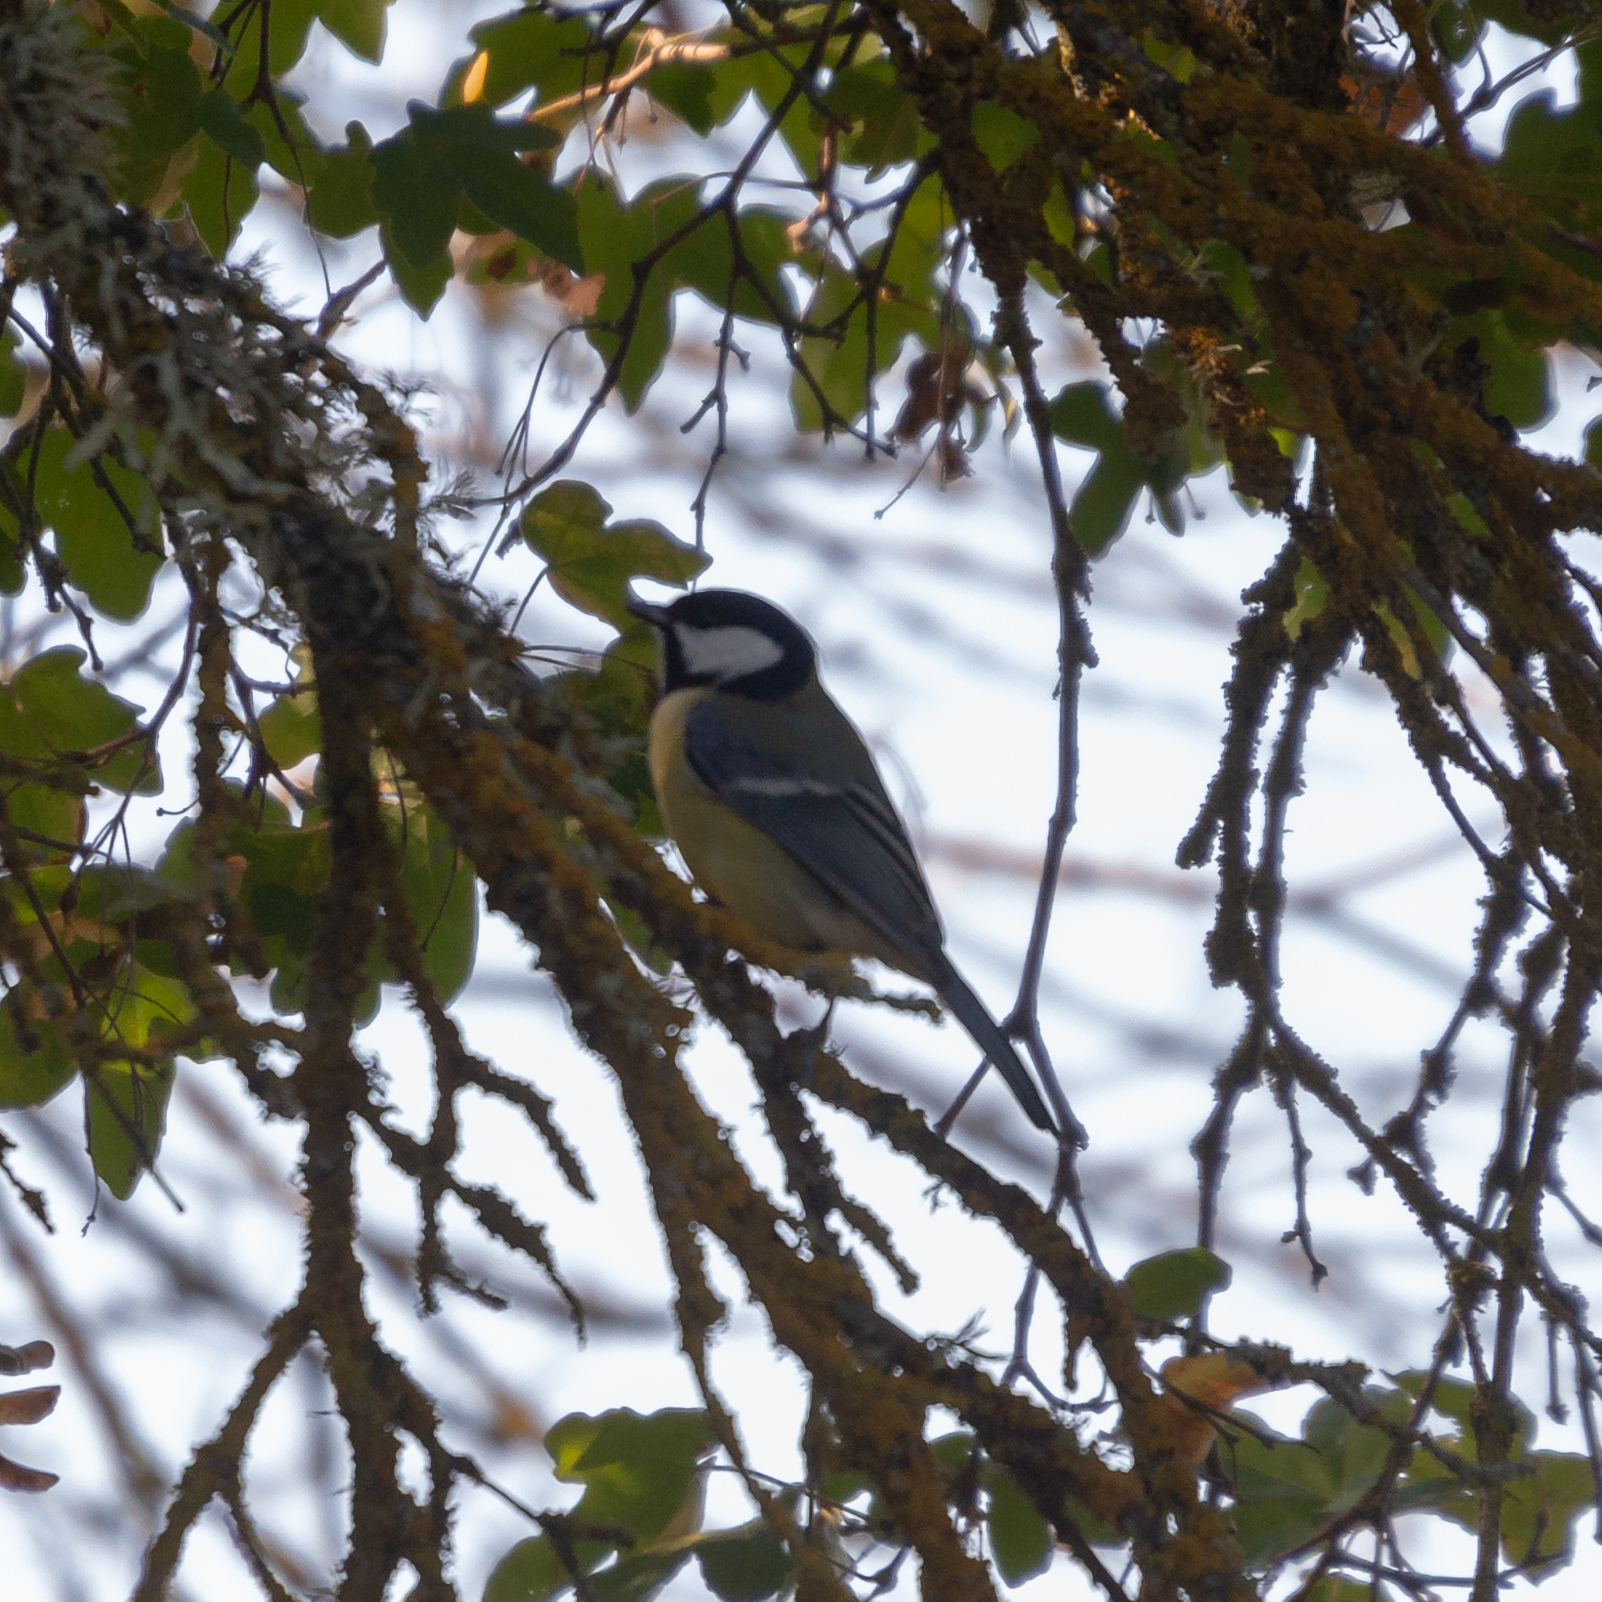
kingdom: Animalia
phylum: Chordata
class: Aves
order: Passeriformes
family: Paridae
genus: Parus
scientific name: Parus major
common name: Great tit
